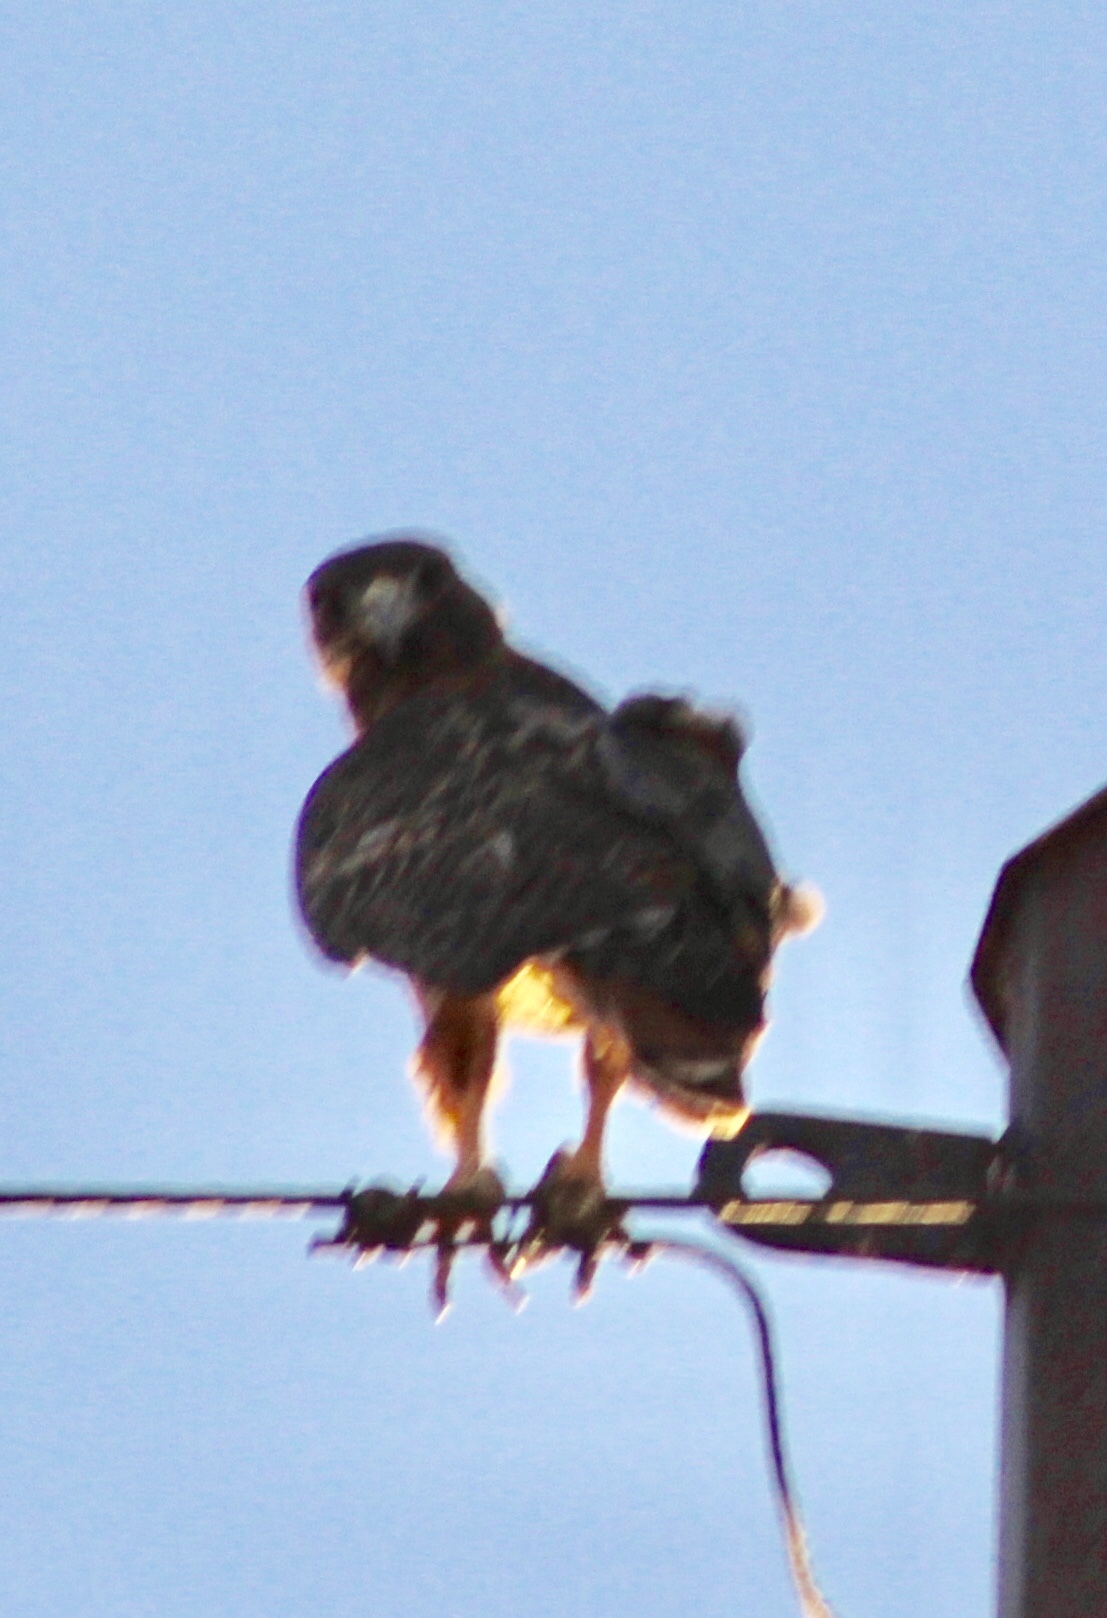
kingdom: Animalia
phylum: Chordata
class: Aves
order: Accipitriformes
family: Accipitridae
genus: Buteo
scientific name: Buteo jamaicensis
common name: Red-tailed hawk
